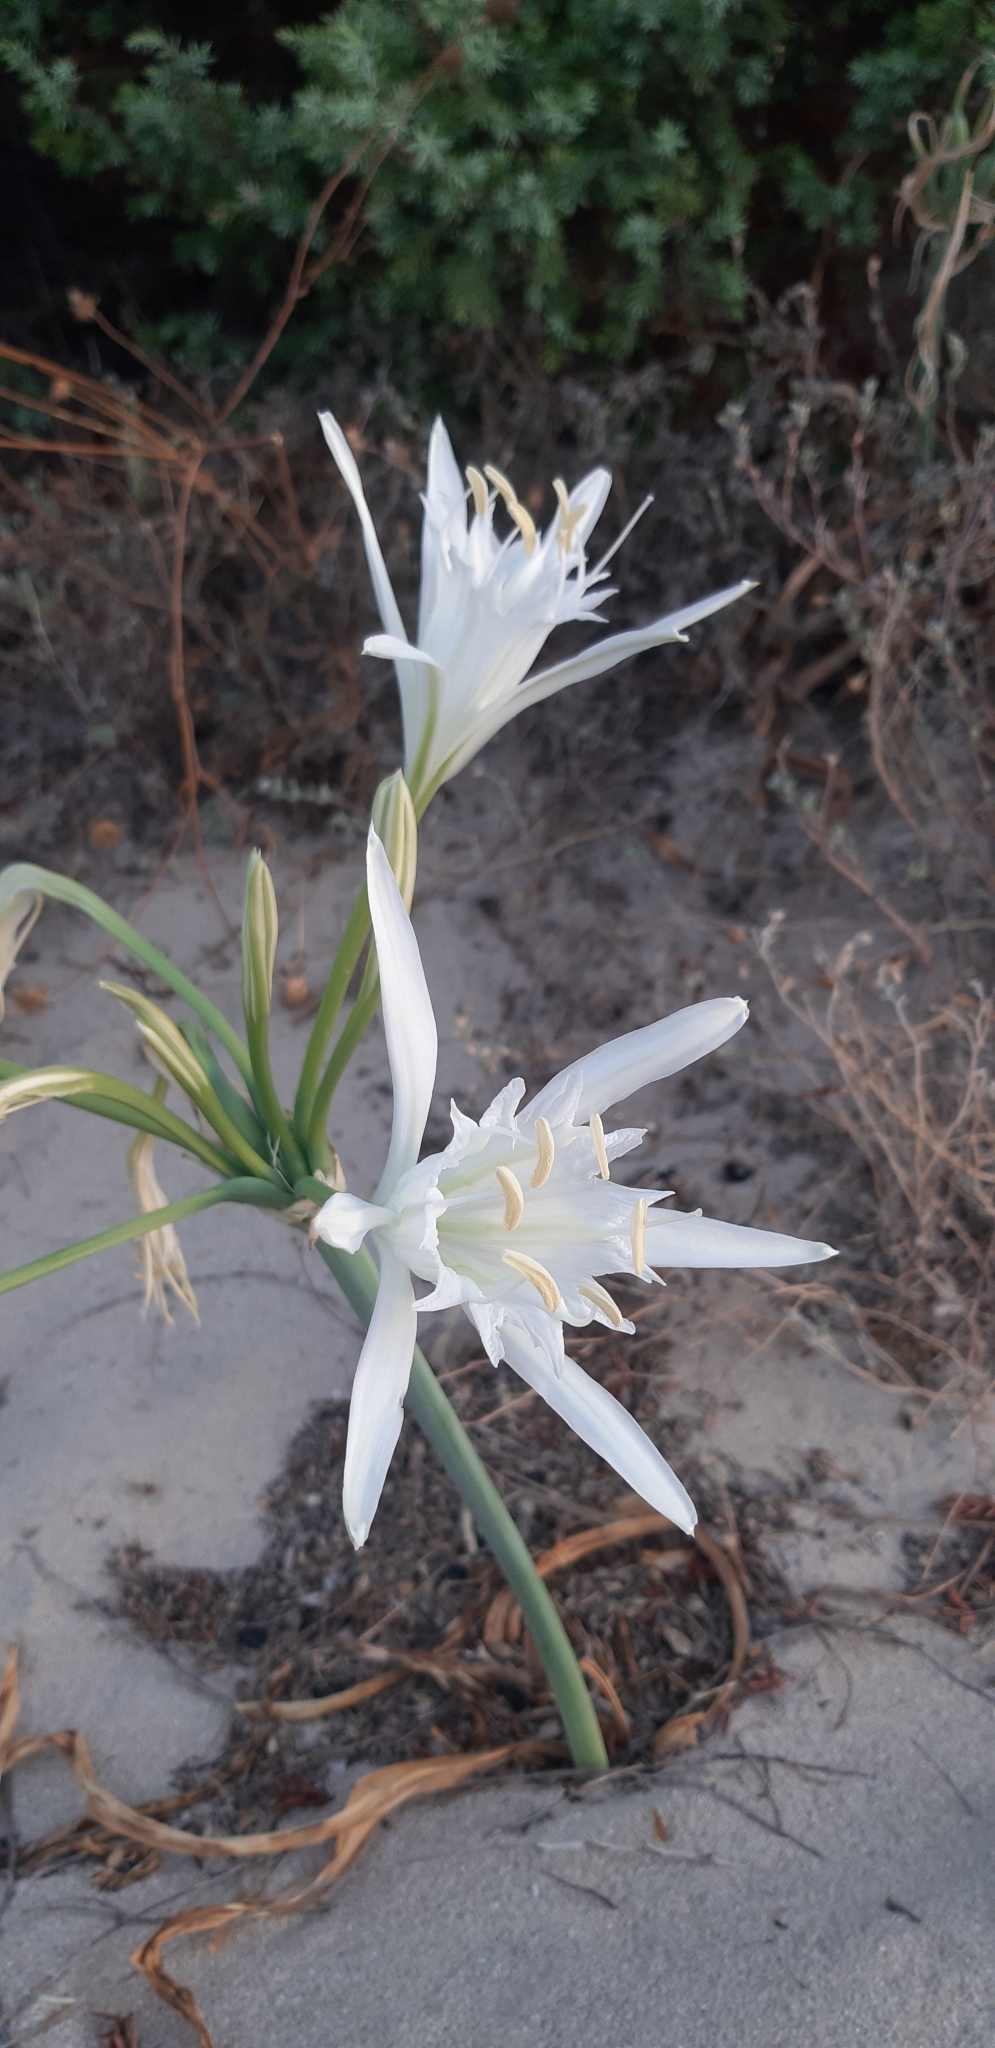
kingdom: Plantae
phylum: Tracheophyta
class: Liliopsida
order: Asparagales
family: Amaryllidaceae
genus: Pancratium
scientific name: Pancratium maritimum
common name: Sea-daffodil
